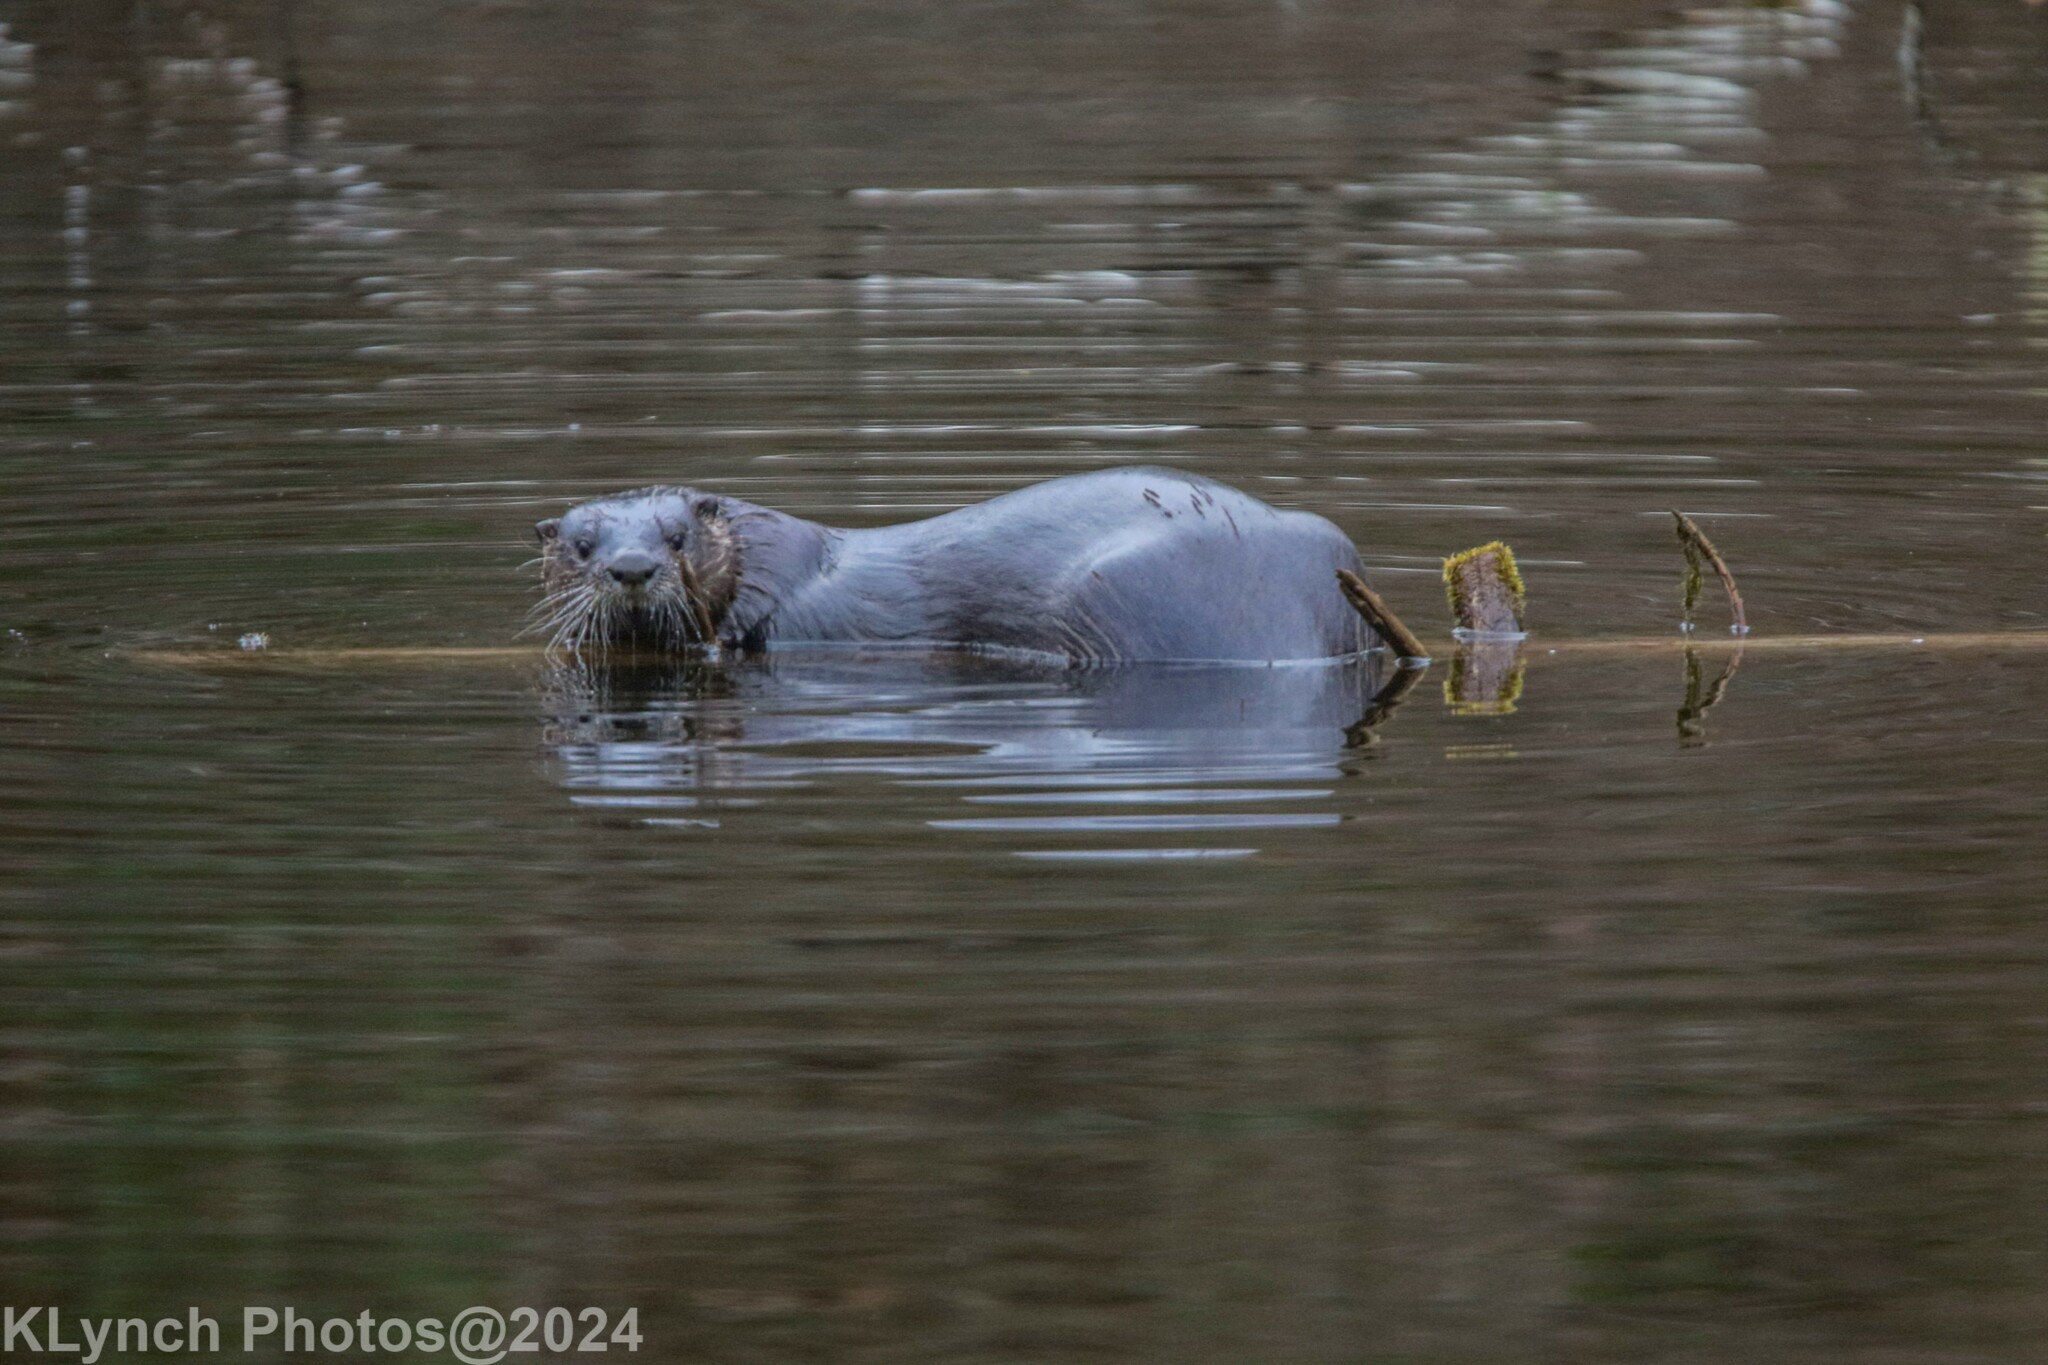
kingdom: Animalia
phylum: Chordata
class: Mammalia
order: Carnivora
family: Mustelidae
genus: Lontra
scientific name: Lontra canadensis
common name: North american river otter
